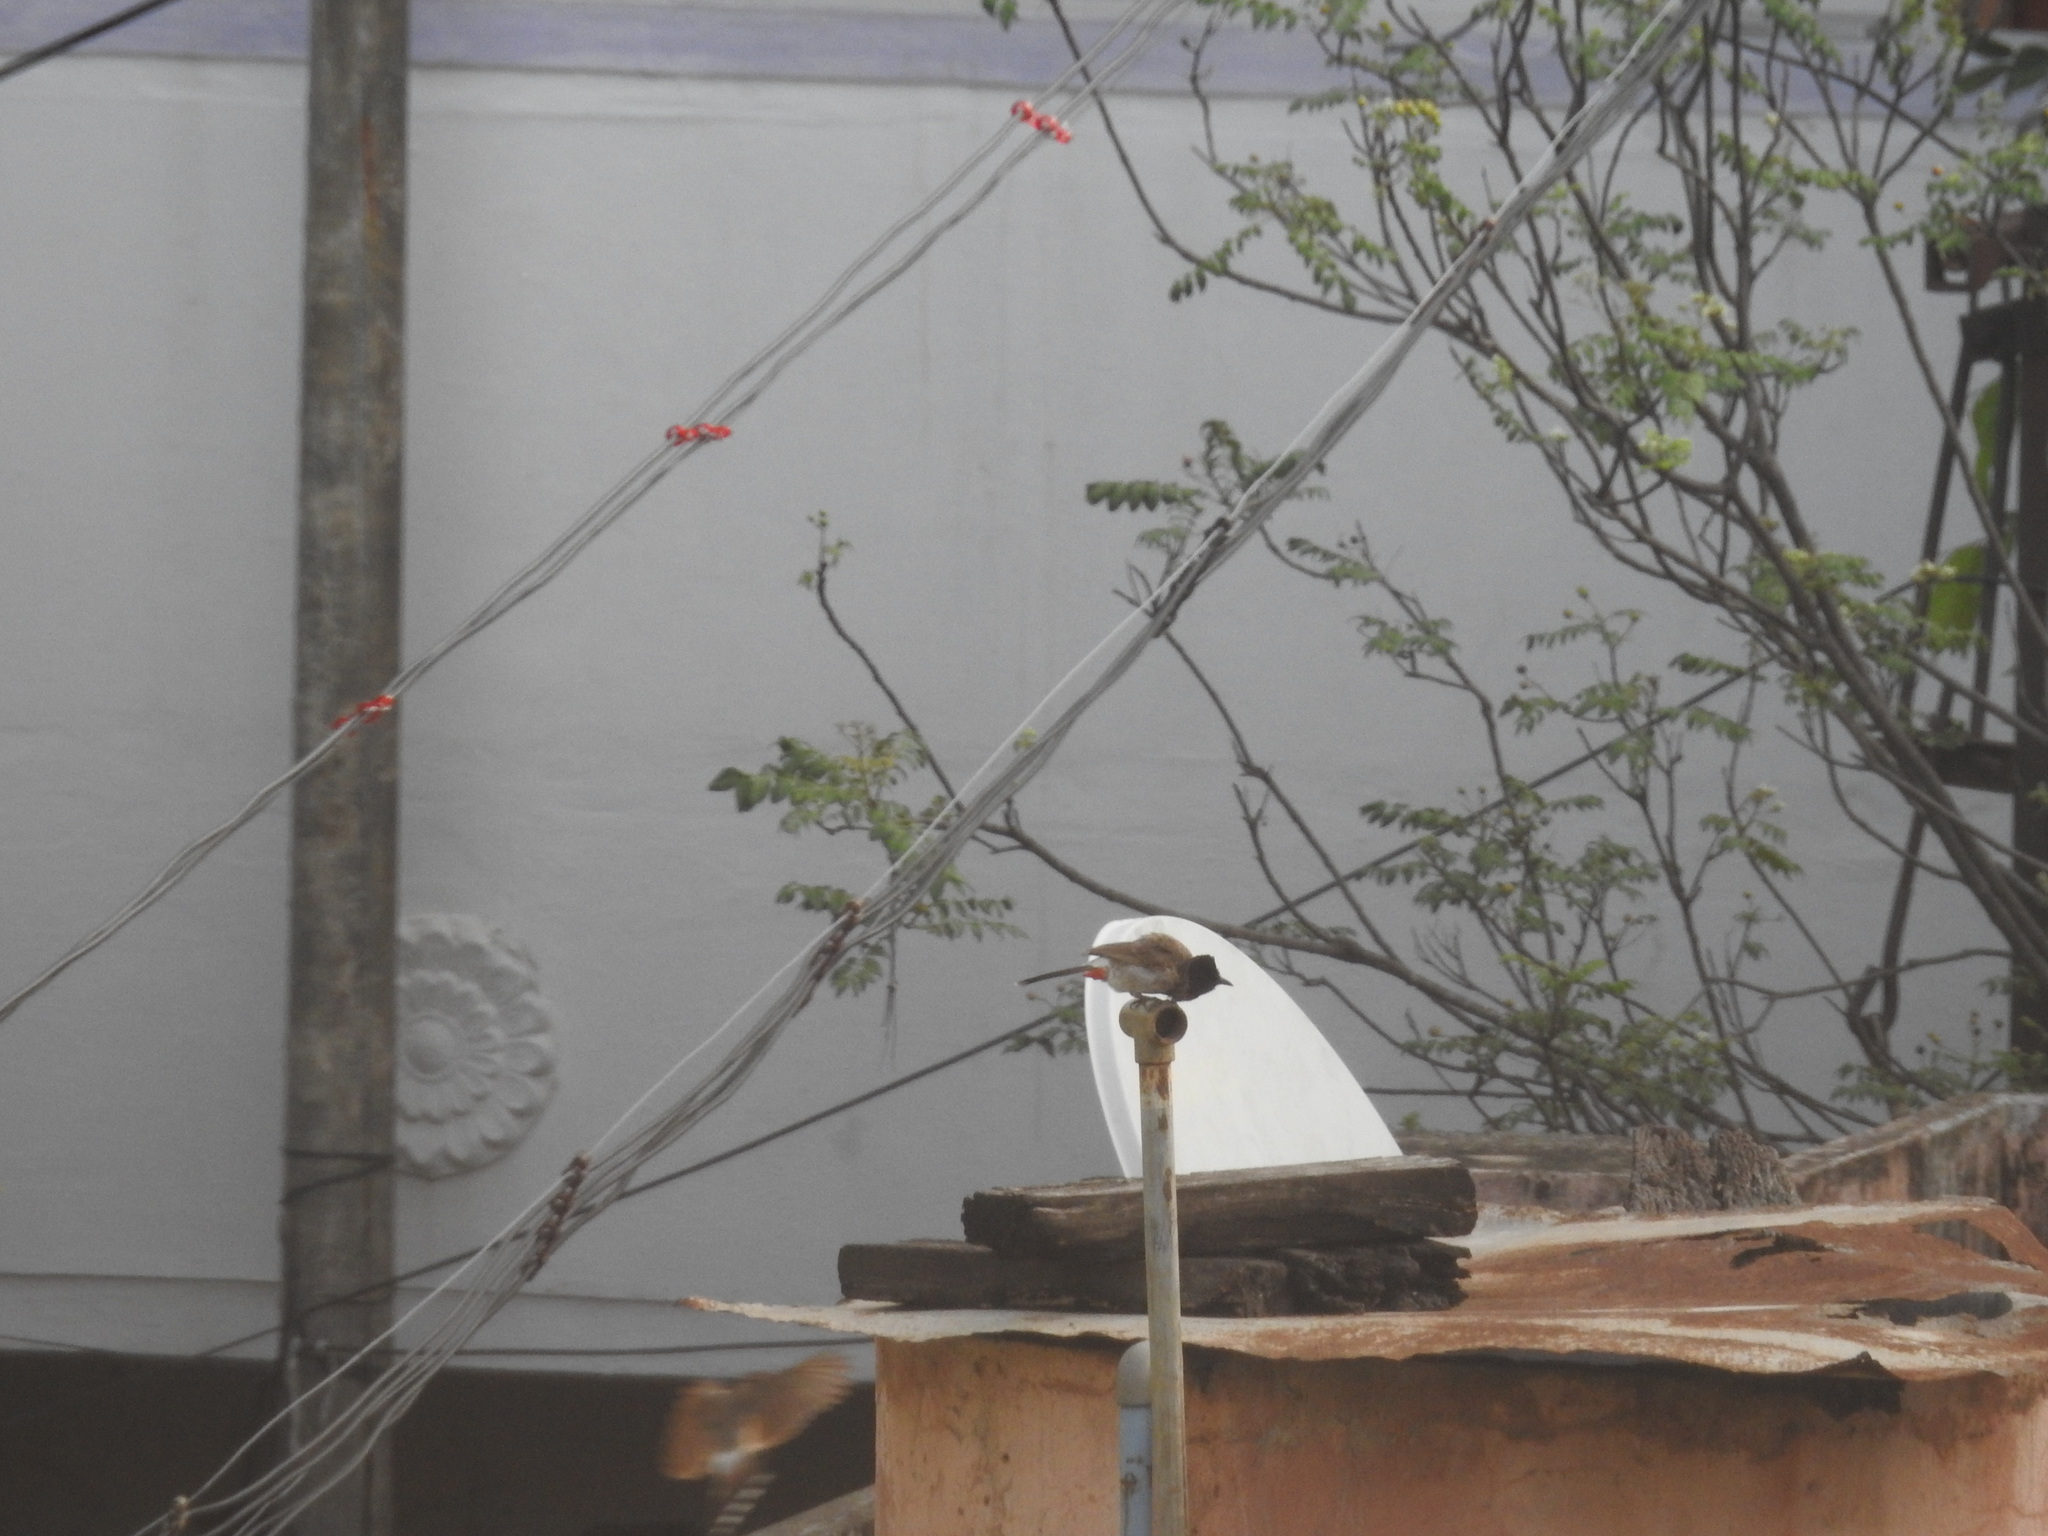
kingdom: Animalia
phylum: Chordata
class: Aves
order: Passeriformes
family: Pycnonotidae
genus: Pycnonotus
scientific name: Pycnonotus cafer
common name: Red-vented bulbul
